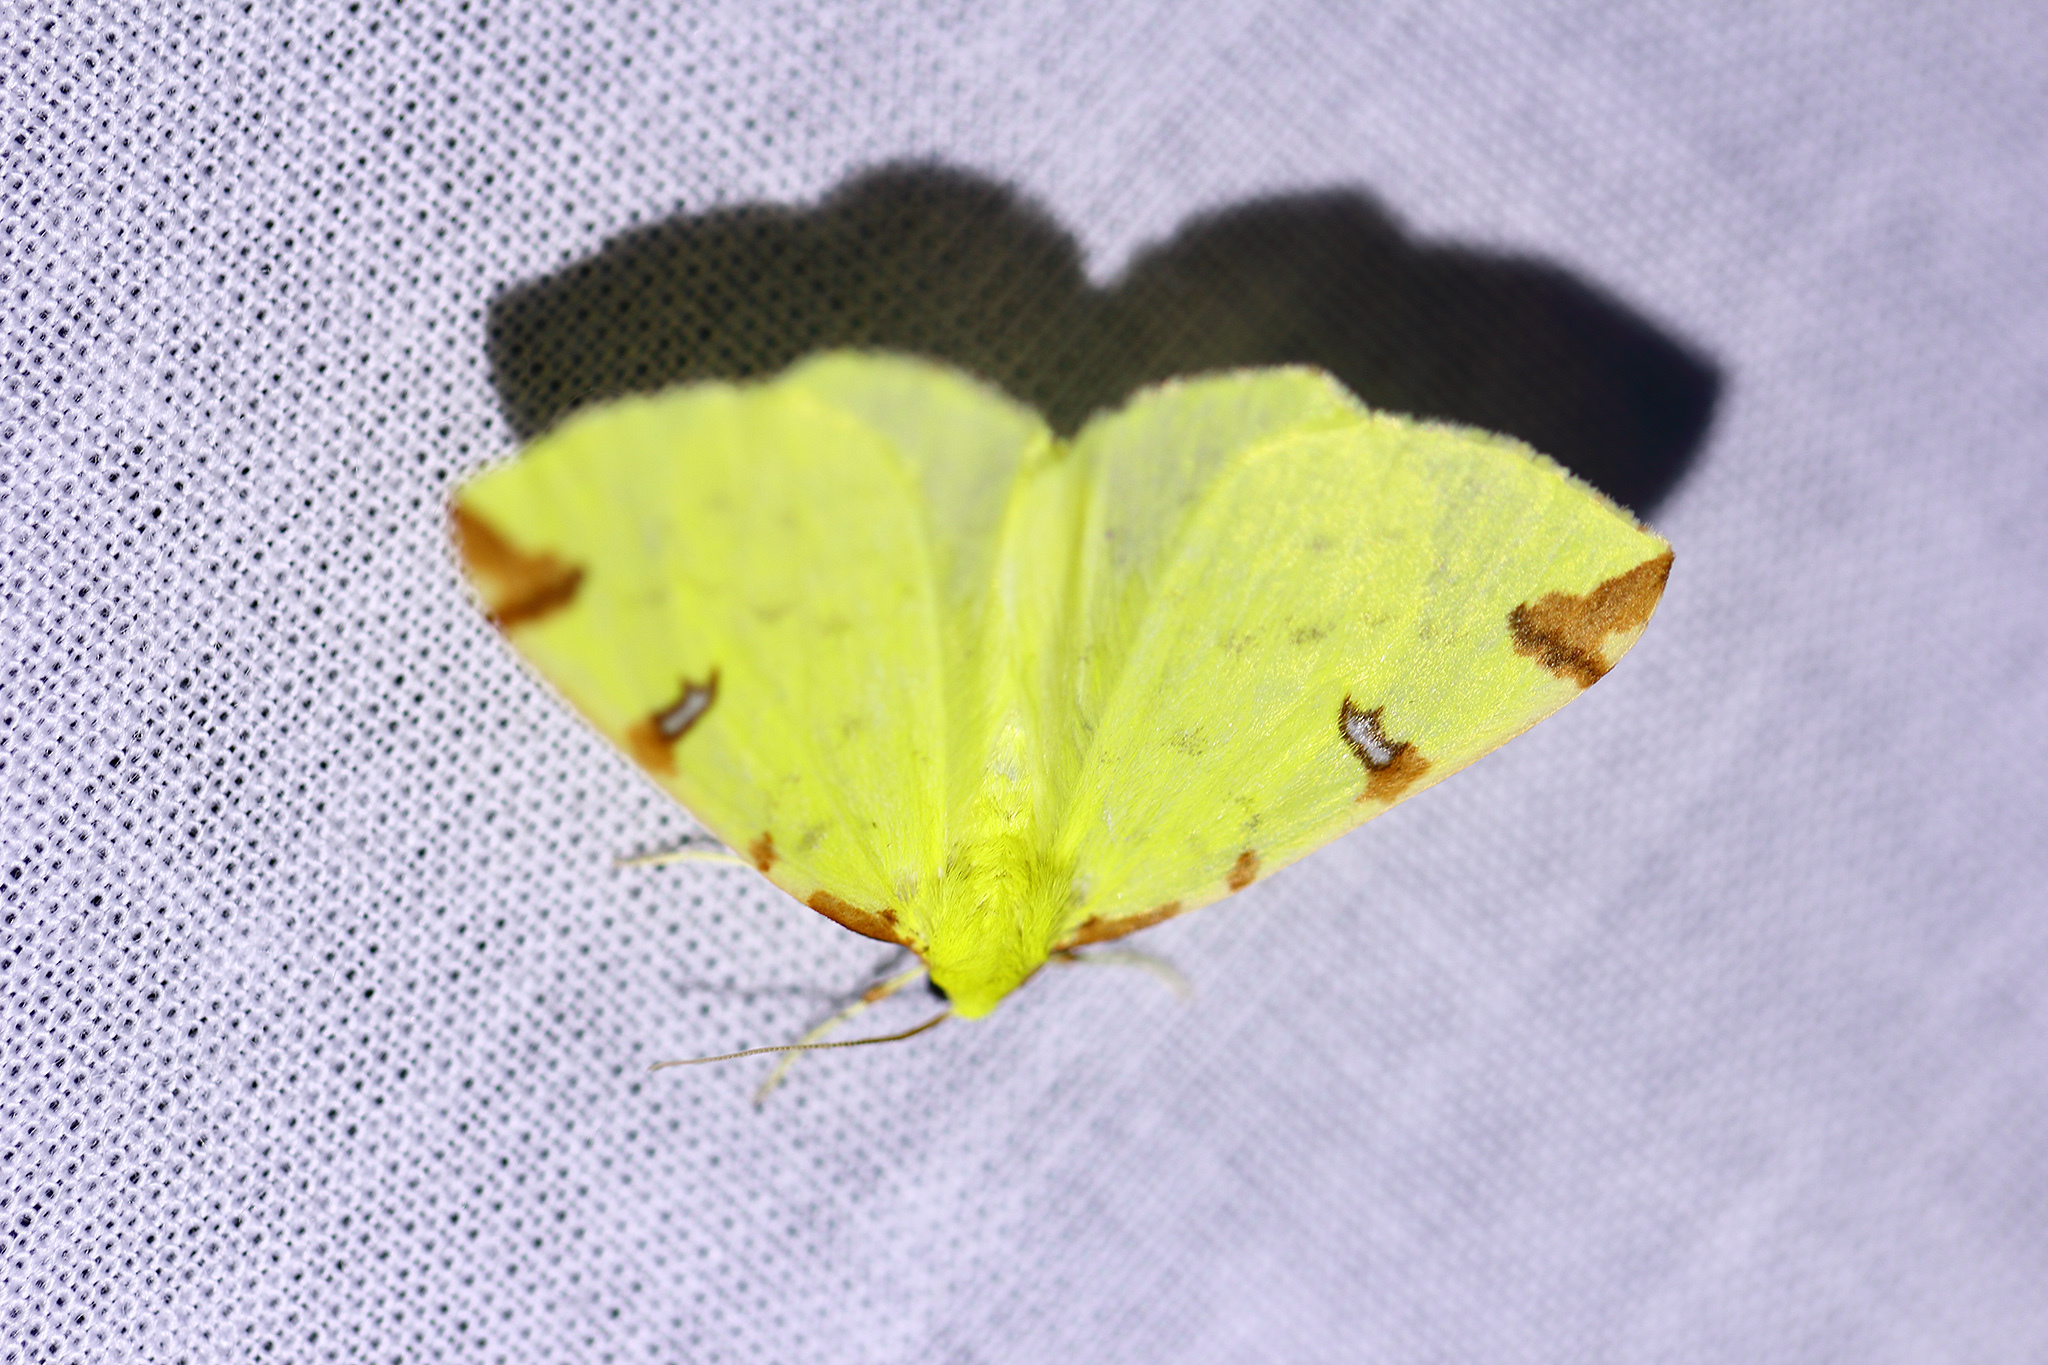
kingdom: Animalia
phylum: Arthropoda
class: Insecta
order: Lepidoptera
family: Geometridae
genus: Opisthograptis
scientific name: Opisthograptis luteolata
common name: Brimstone moth
